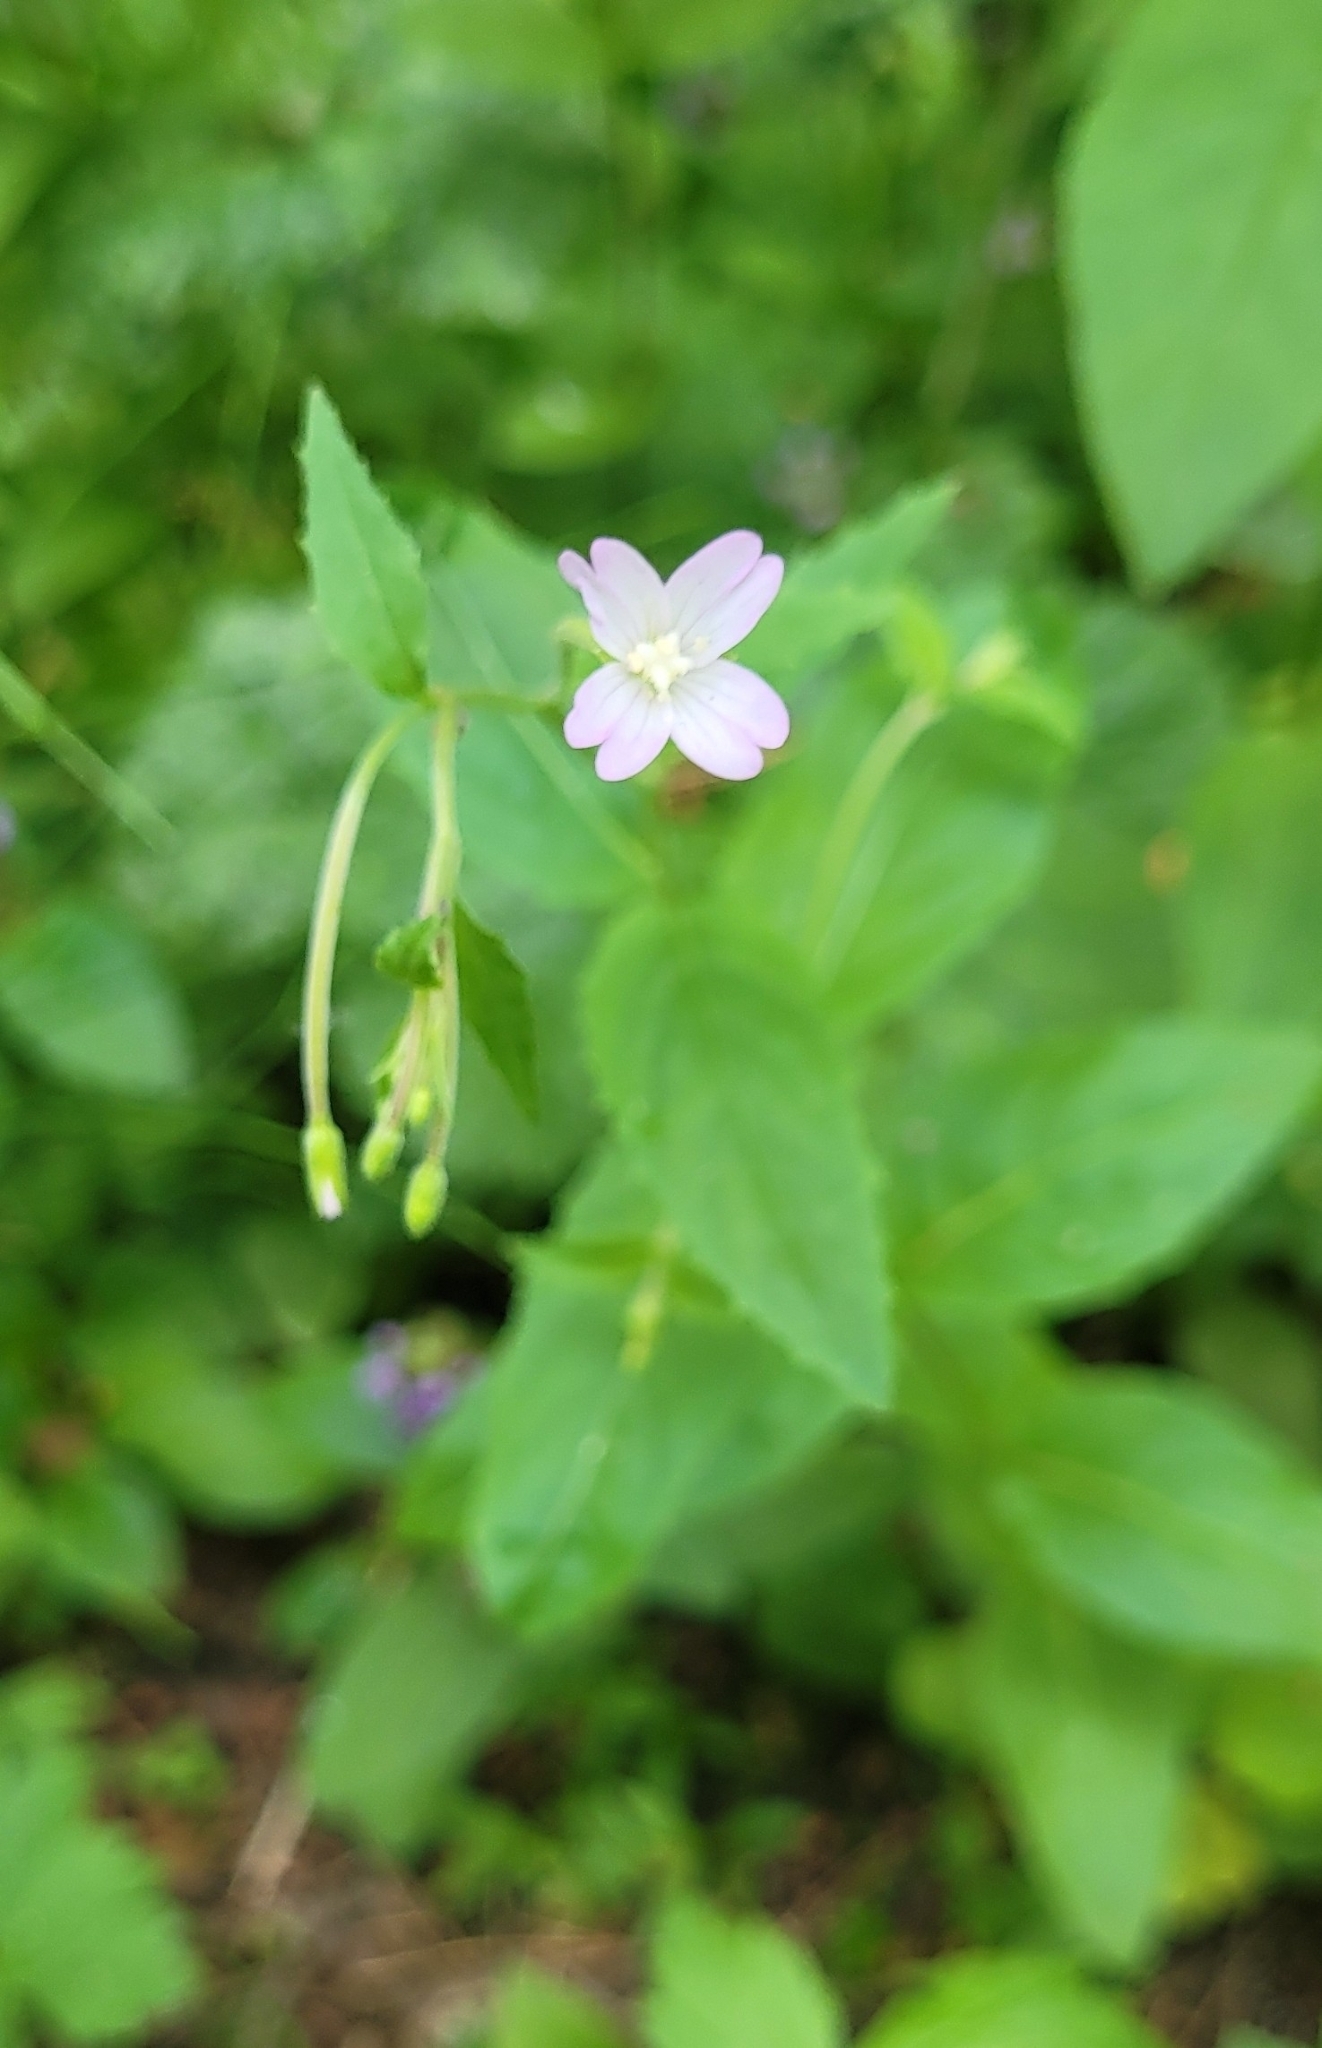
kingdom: Plantae
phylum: Tracheophyta
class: Magnoliopsida
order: Myrtales
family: Onagraceae
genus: Epilobium
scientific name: Epilobium montanum
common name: Broad-leaved willowherb
